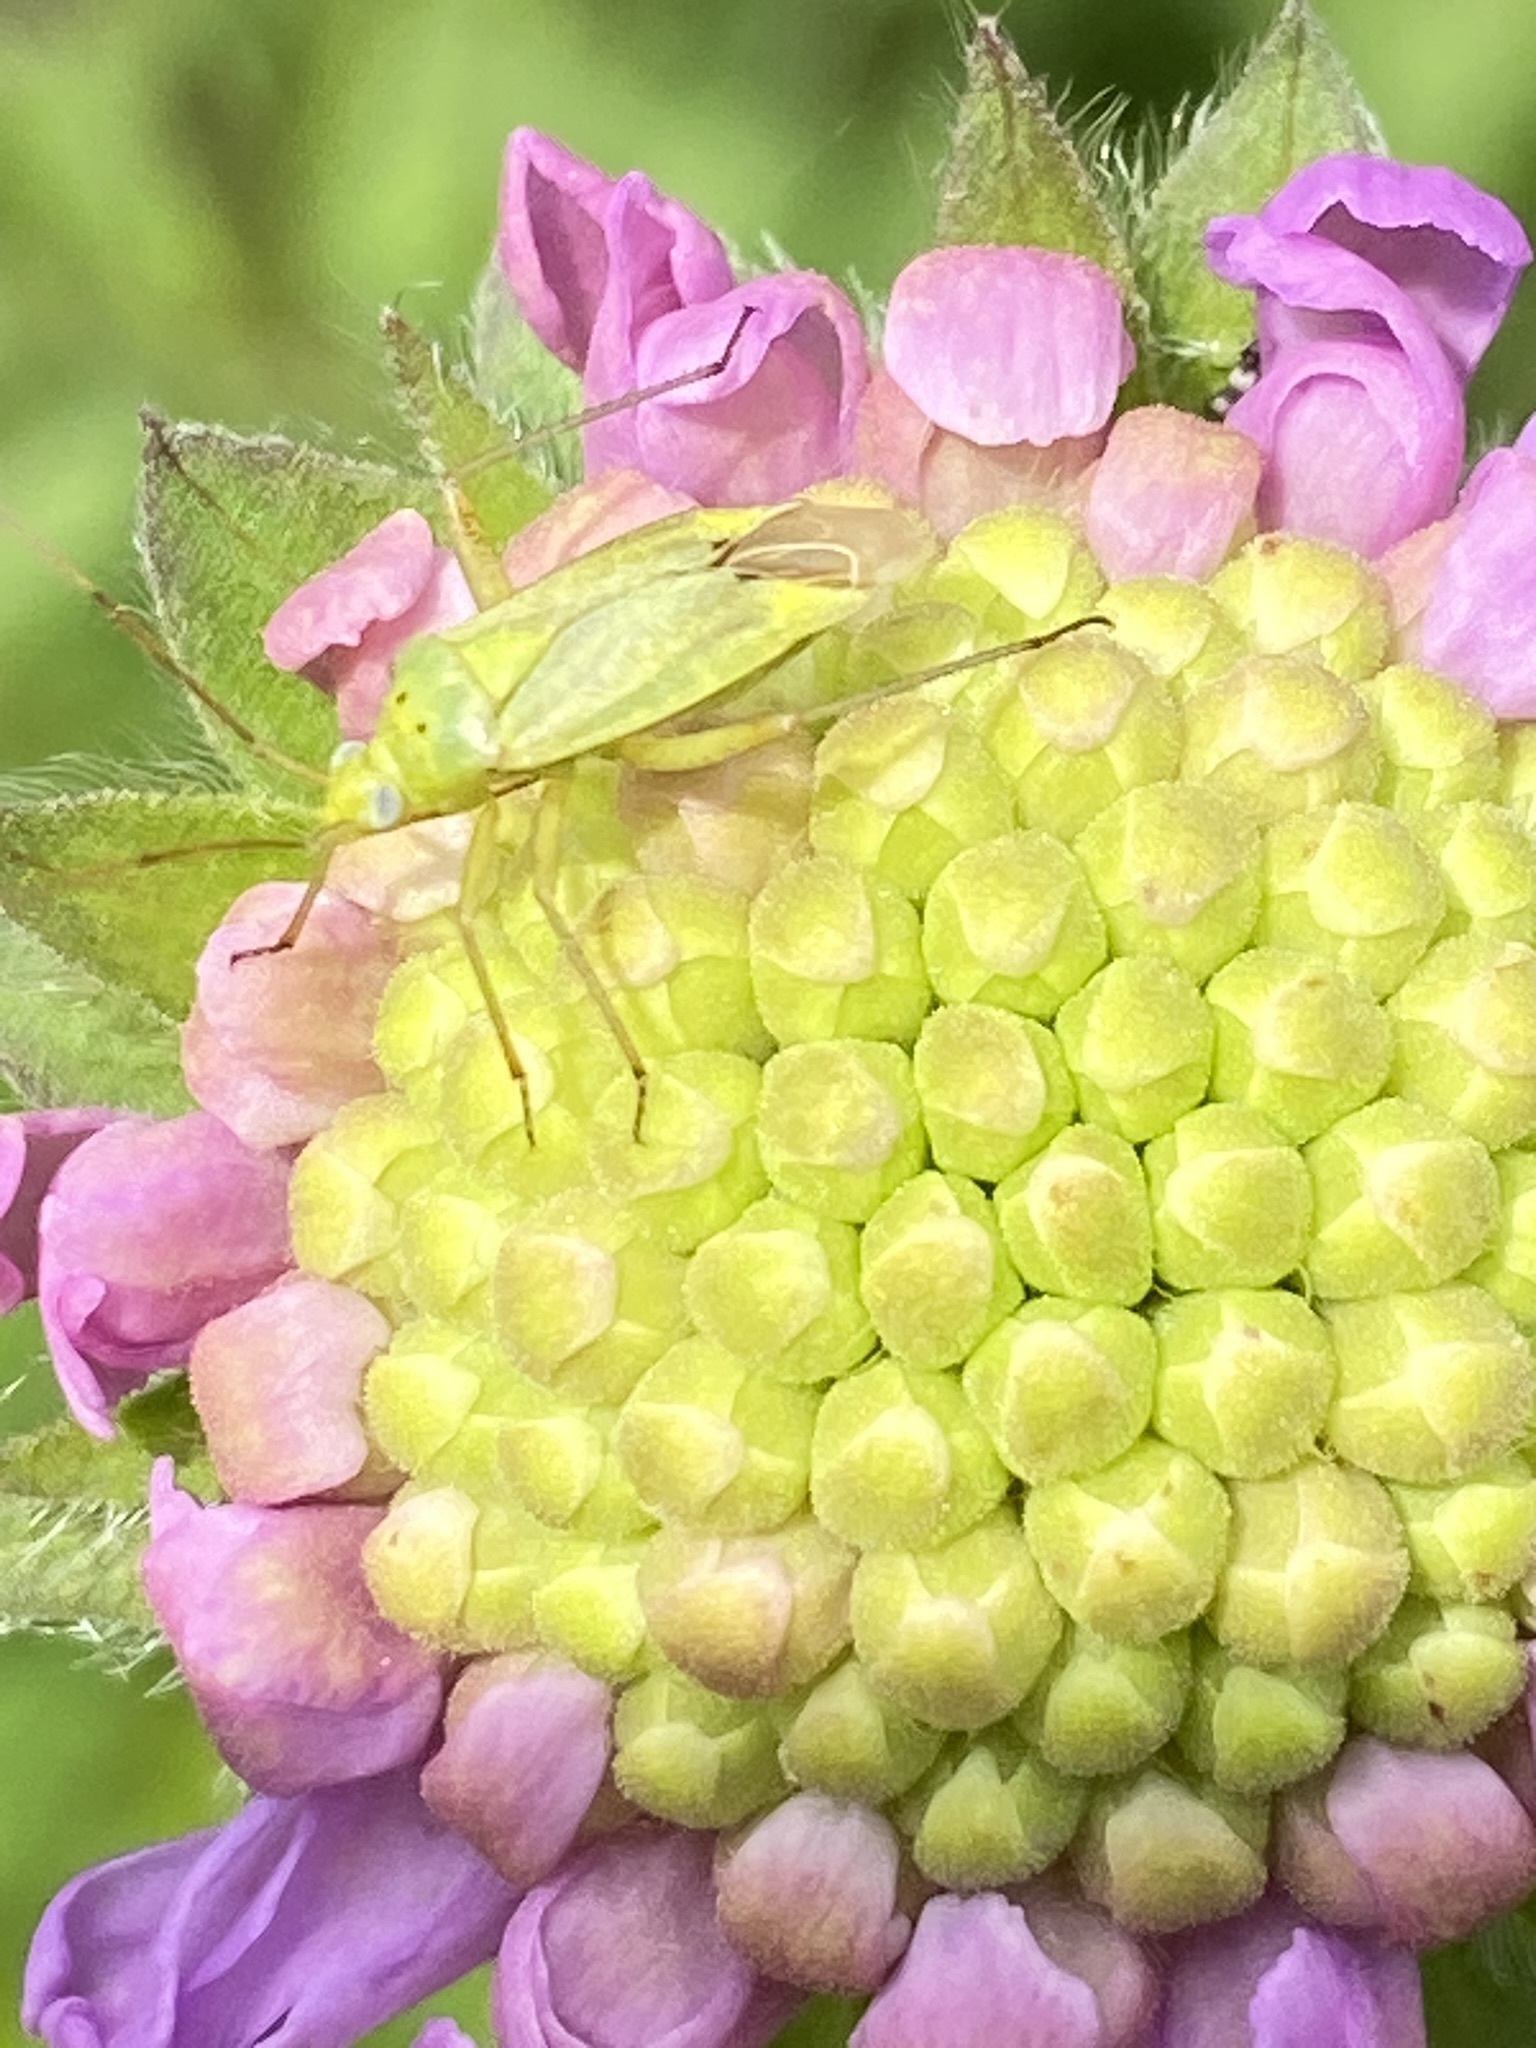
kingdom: Animalia
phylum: Arthropoda
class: Insecta
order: Hemiptera
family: Miridae
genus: Closterotomus
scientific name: Closterotomus norvegicus
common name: Plant bug
